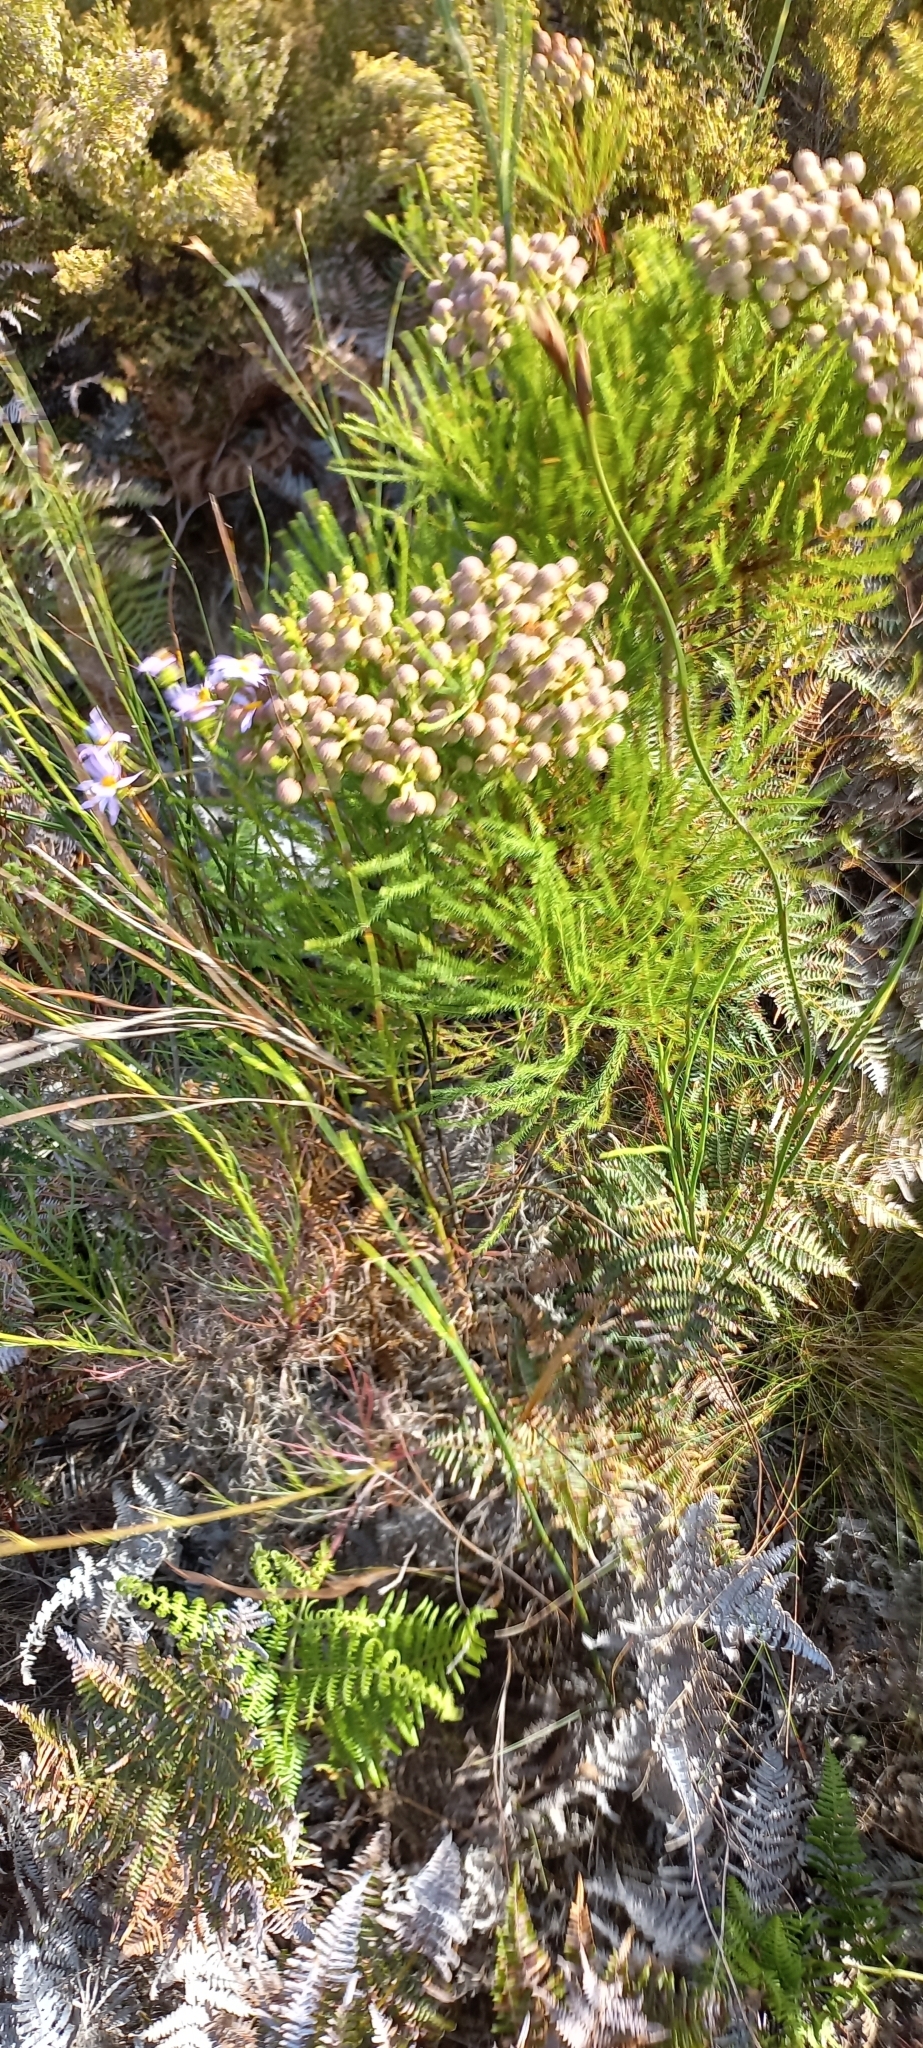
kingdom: Plantae
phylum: Tracheophyta
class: Magnoliopsida
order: Bruniales
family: Bruniaceae
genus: Berzelia
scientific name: Berzelia lanuginosa
